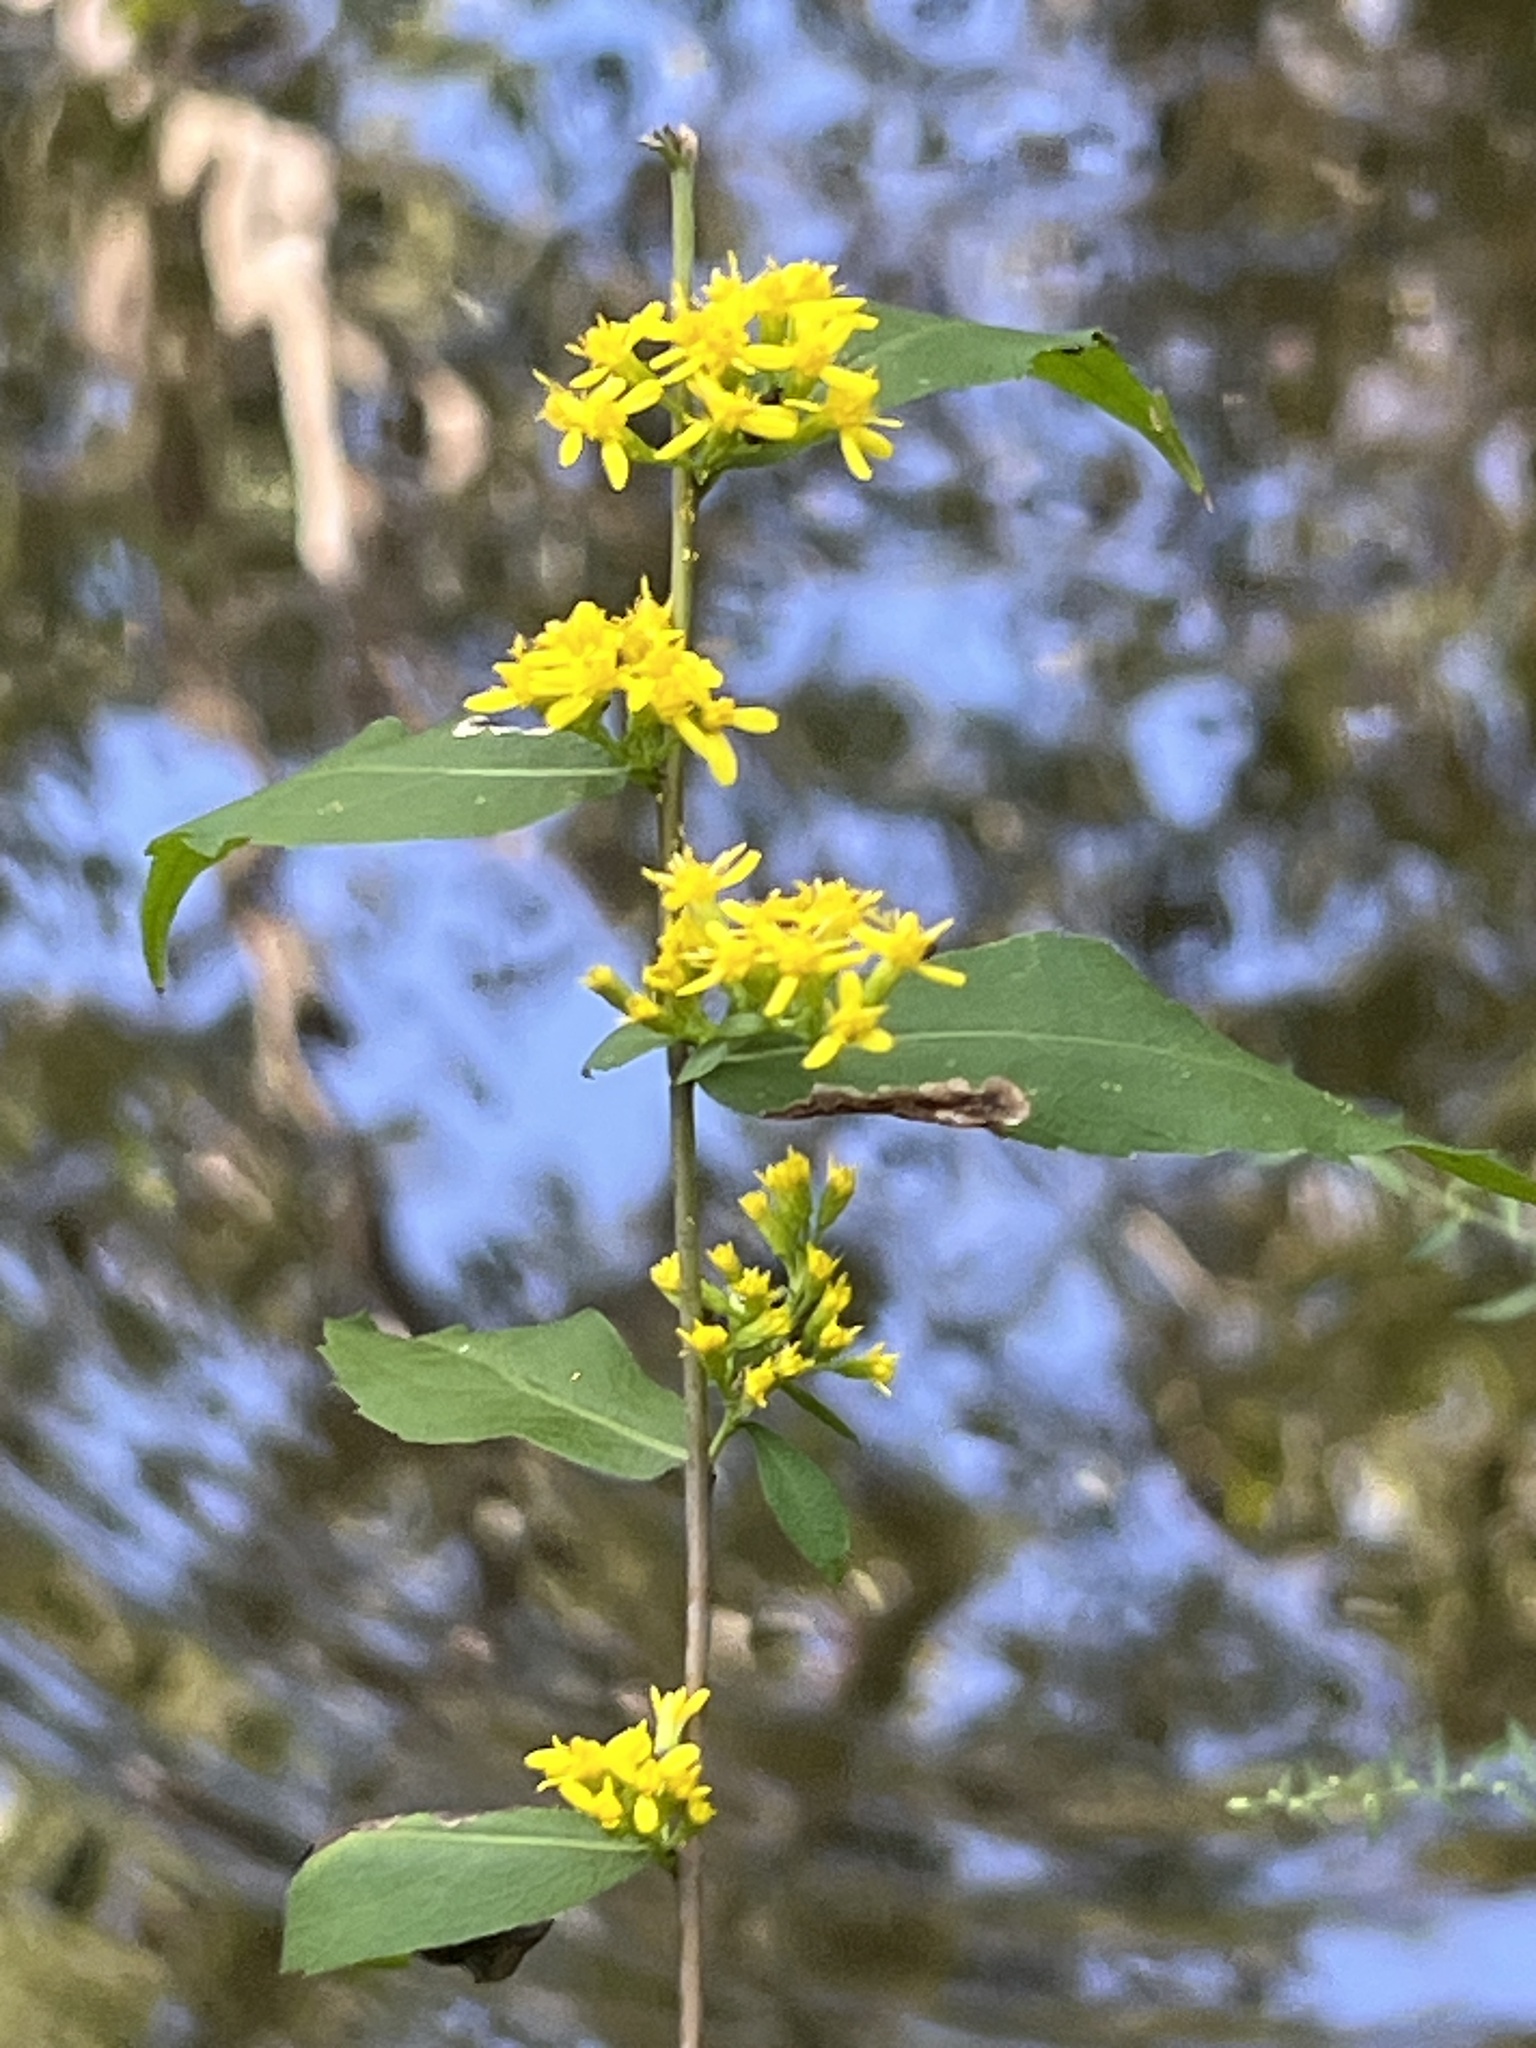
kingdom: Plantae
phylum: Tracheophyta
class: Magnoliopsida
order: Asterales
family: Asteraceae
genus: Solidago
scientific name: Solidago caesia
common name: Woodland goldenrod
